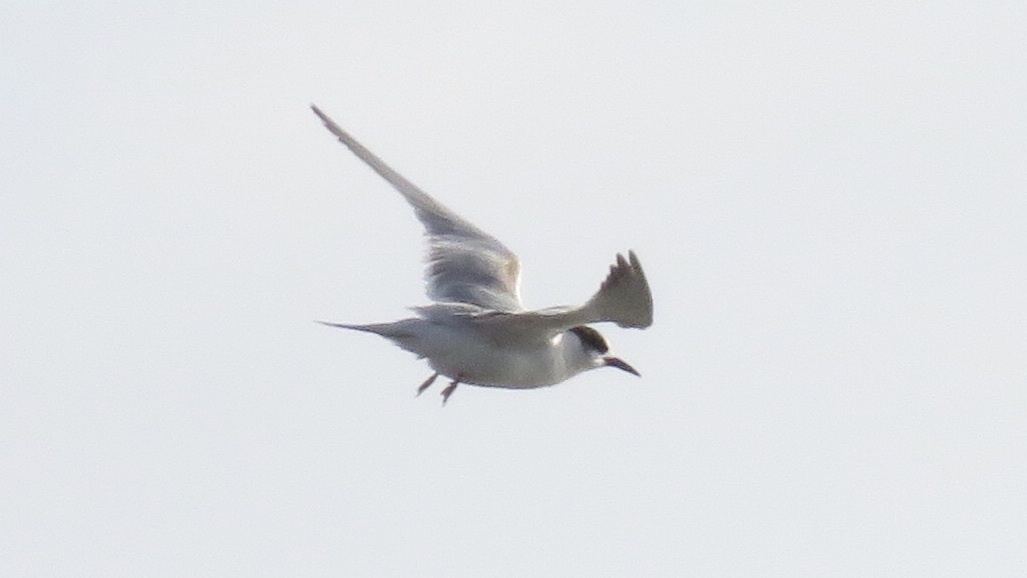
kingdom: Animalia
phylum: Chordata
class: Aves
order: Charadriiformes
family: Laridae
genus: Sterna
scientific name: Sterna hirundo
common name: Common tern
